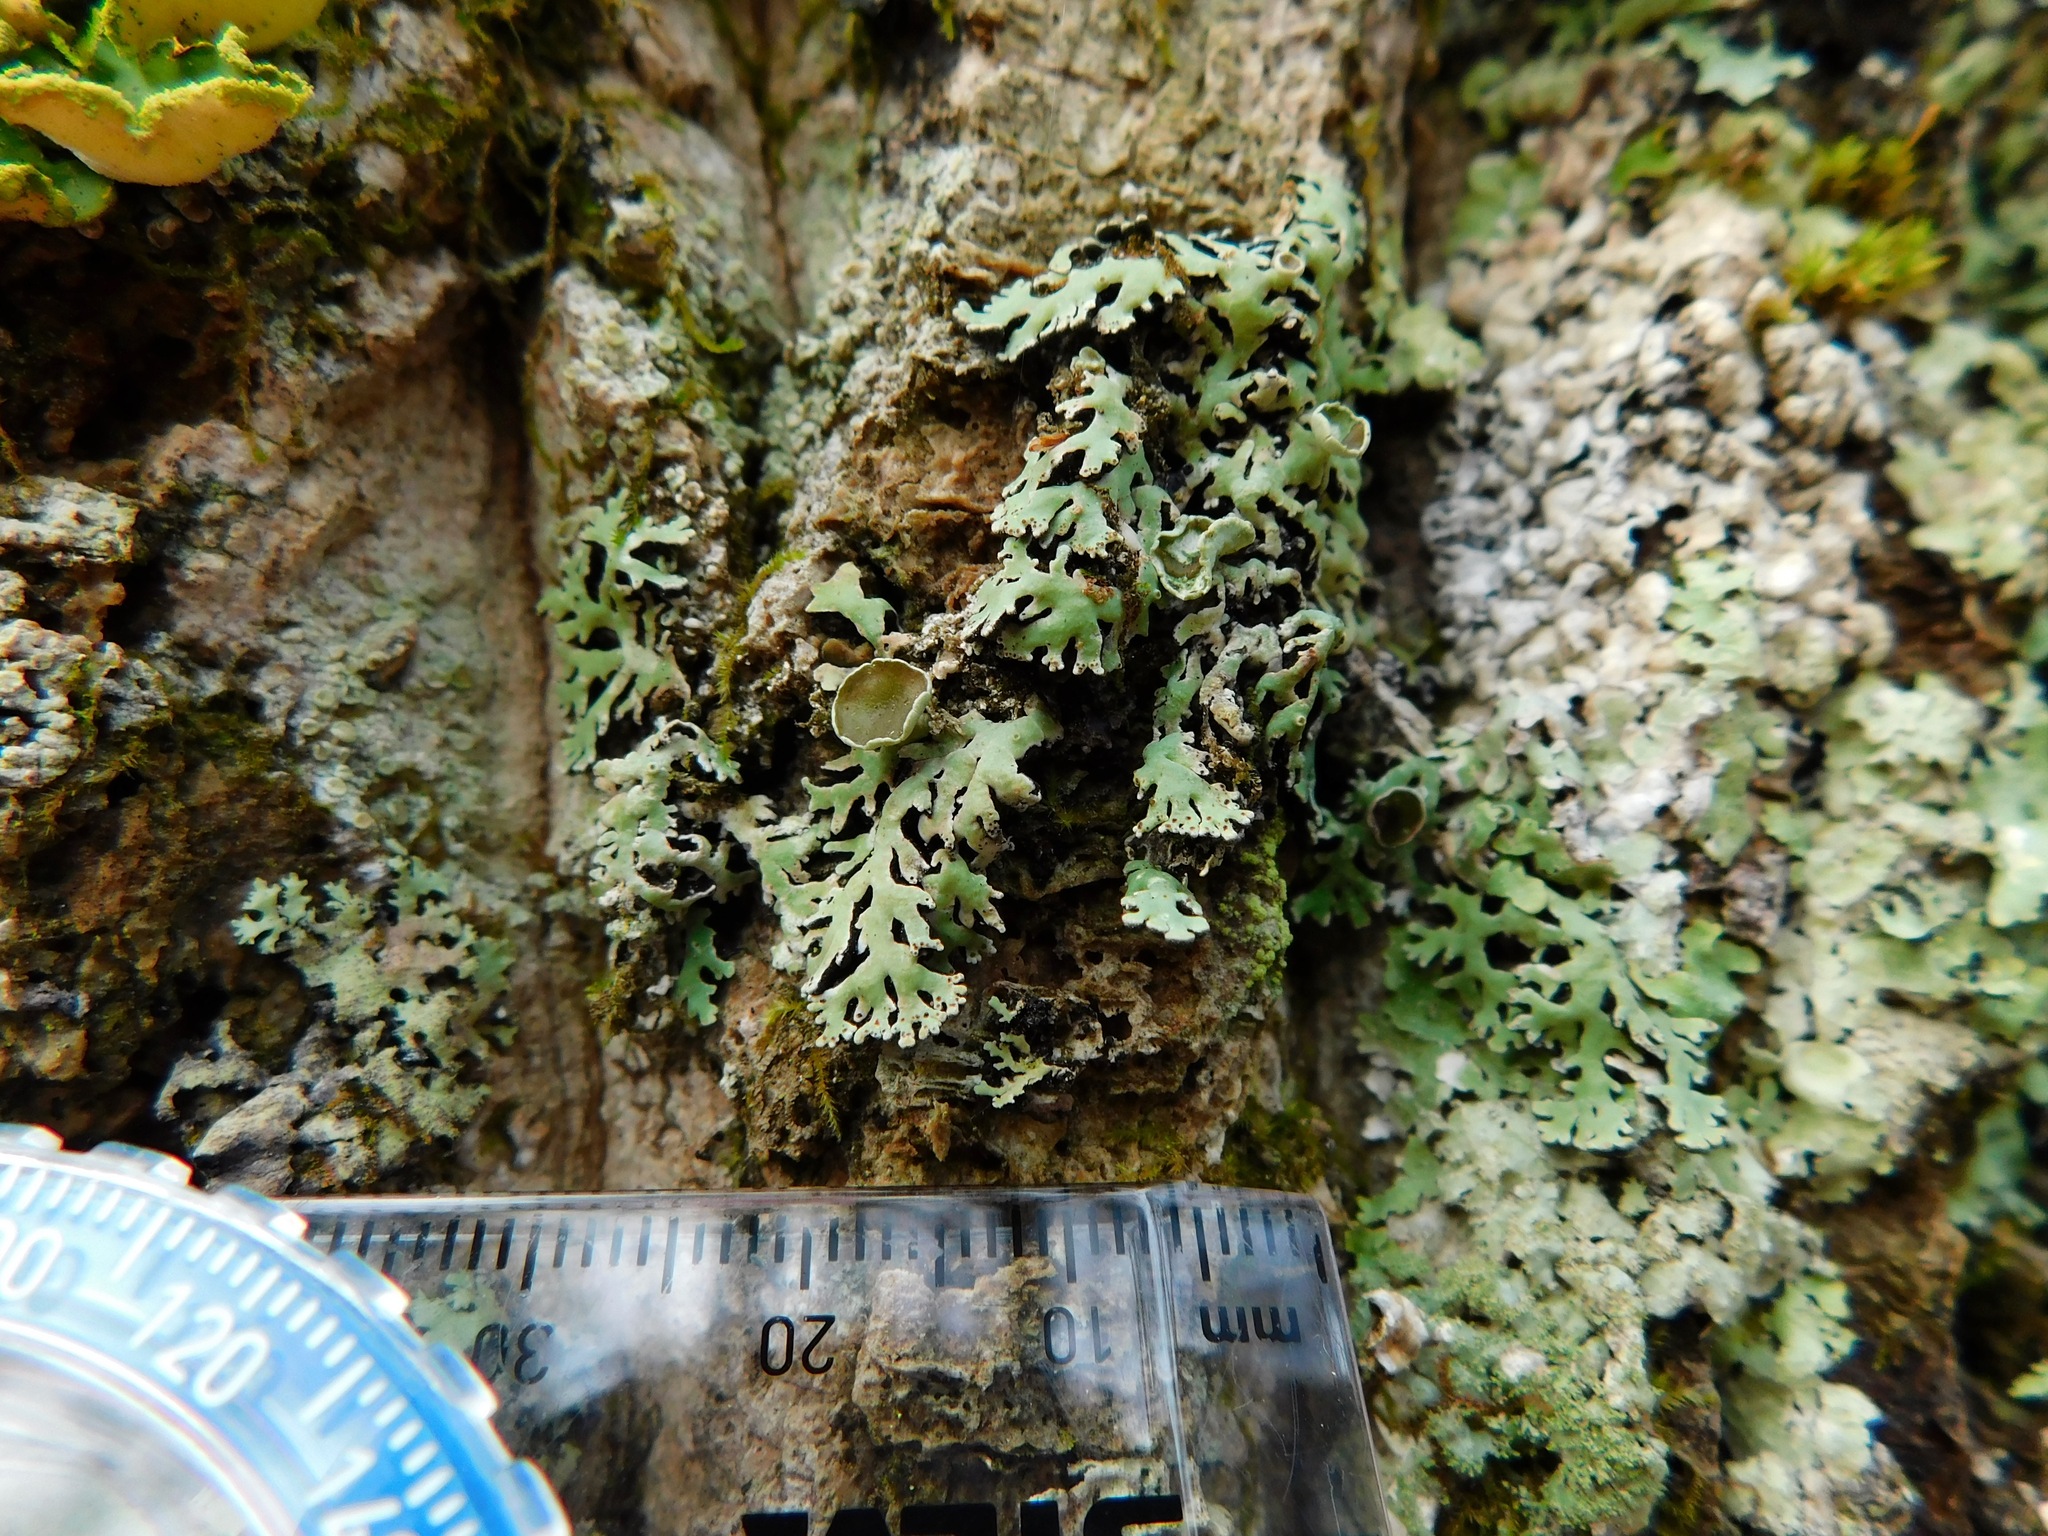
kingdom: Fungi
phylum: Ascomycota
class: Lecanoromycetes
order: Lecanorales
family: Parmeliaceae
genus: Anzia
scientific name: Anzia colpodes
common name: Black-foam lichen
